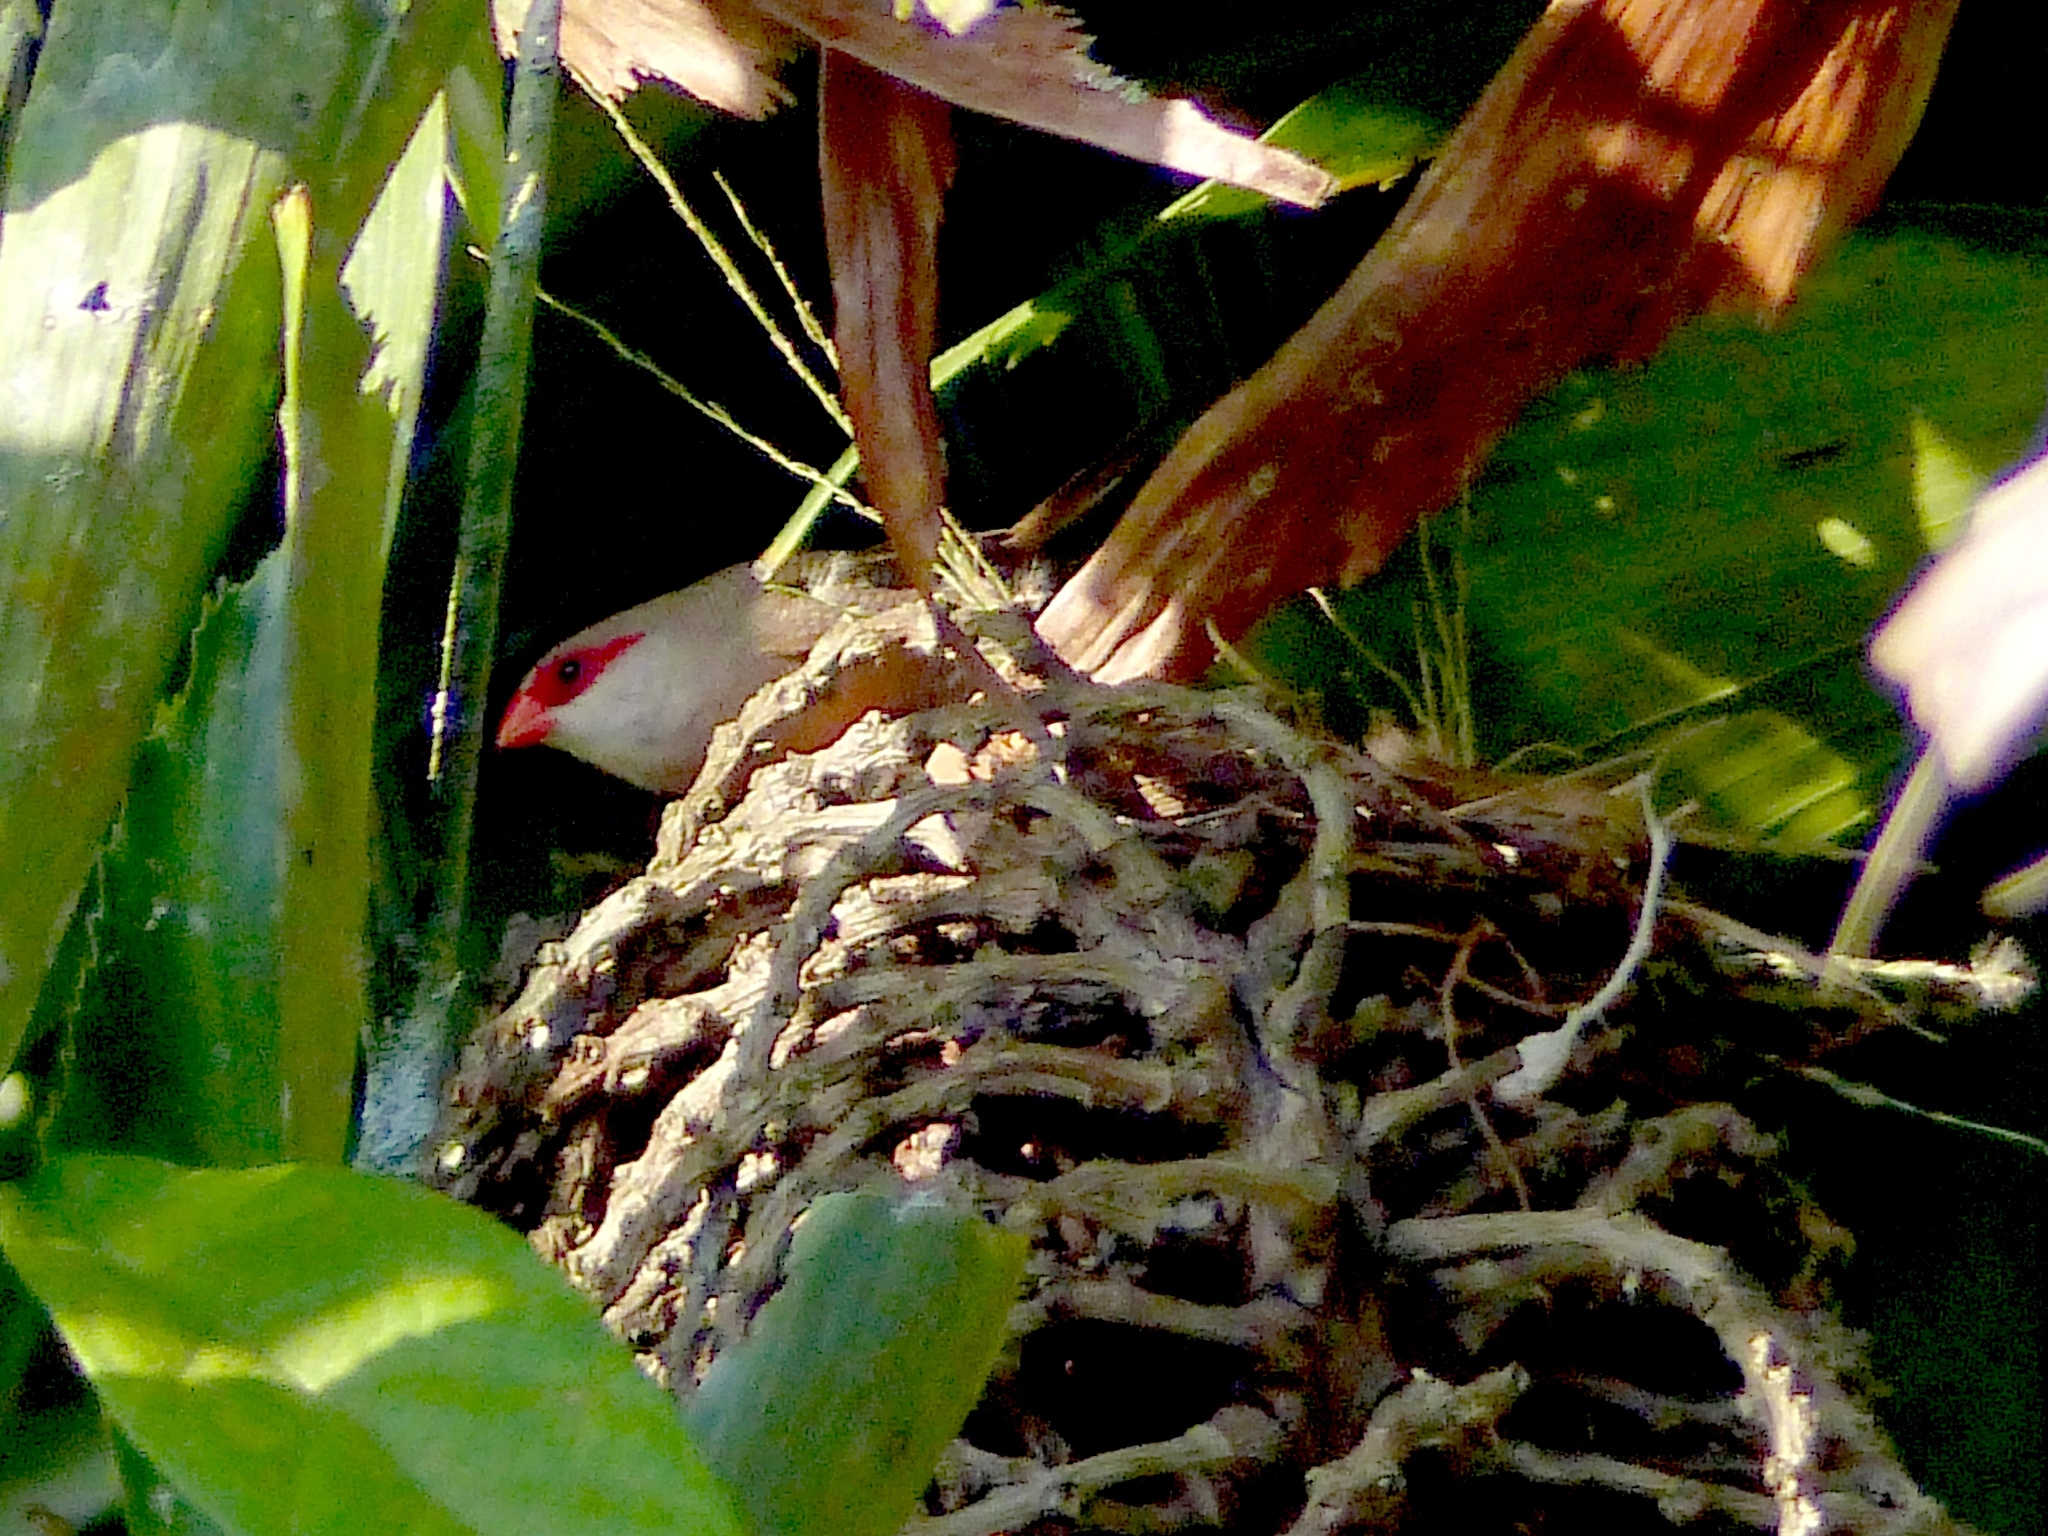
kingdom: Animalia
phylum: Chordata
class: Aves
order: Passeriformes
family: Estrildidae
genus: Estrilda
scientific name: Estrilda astrild
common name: Common waxbill
